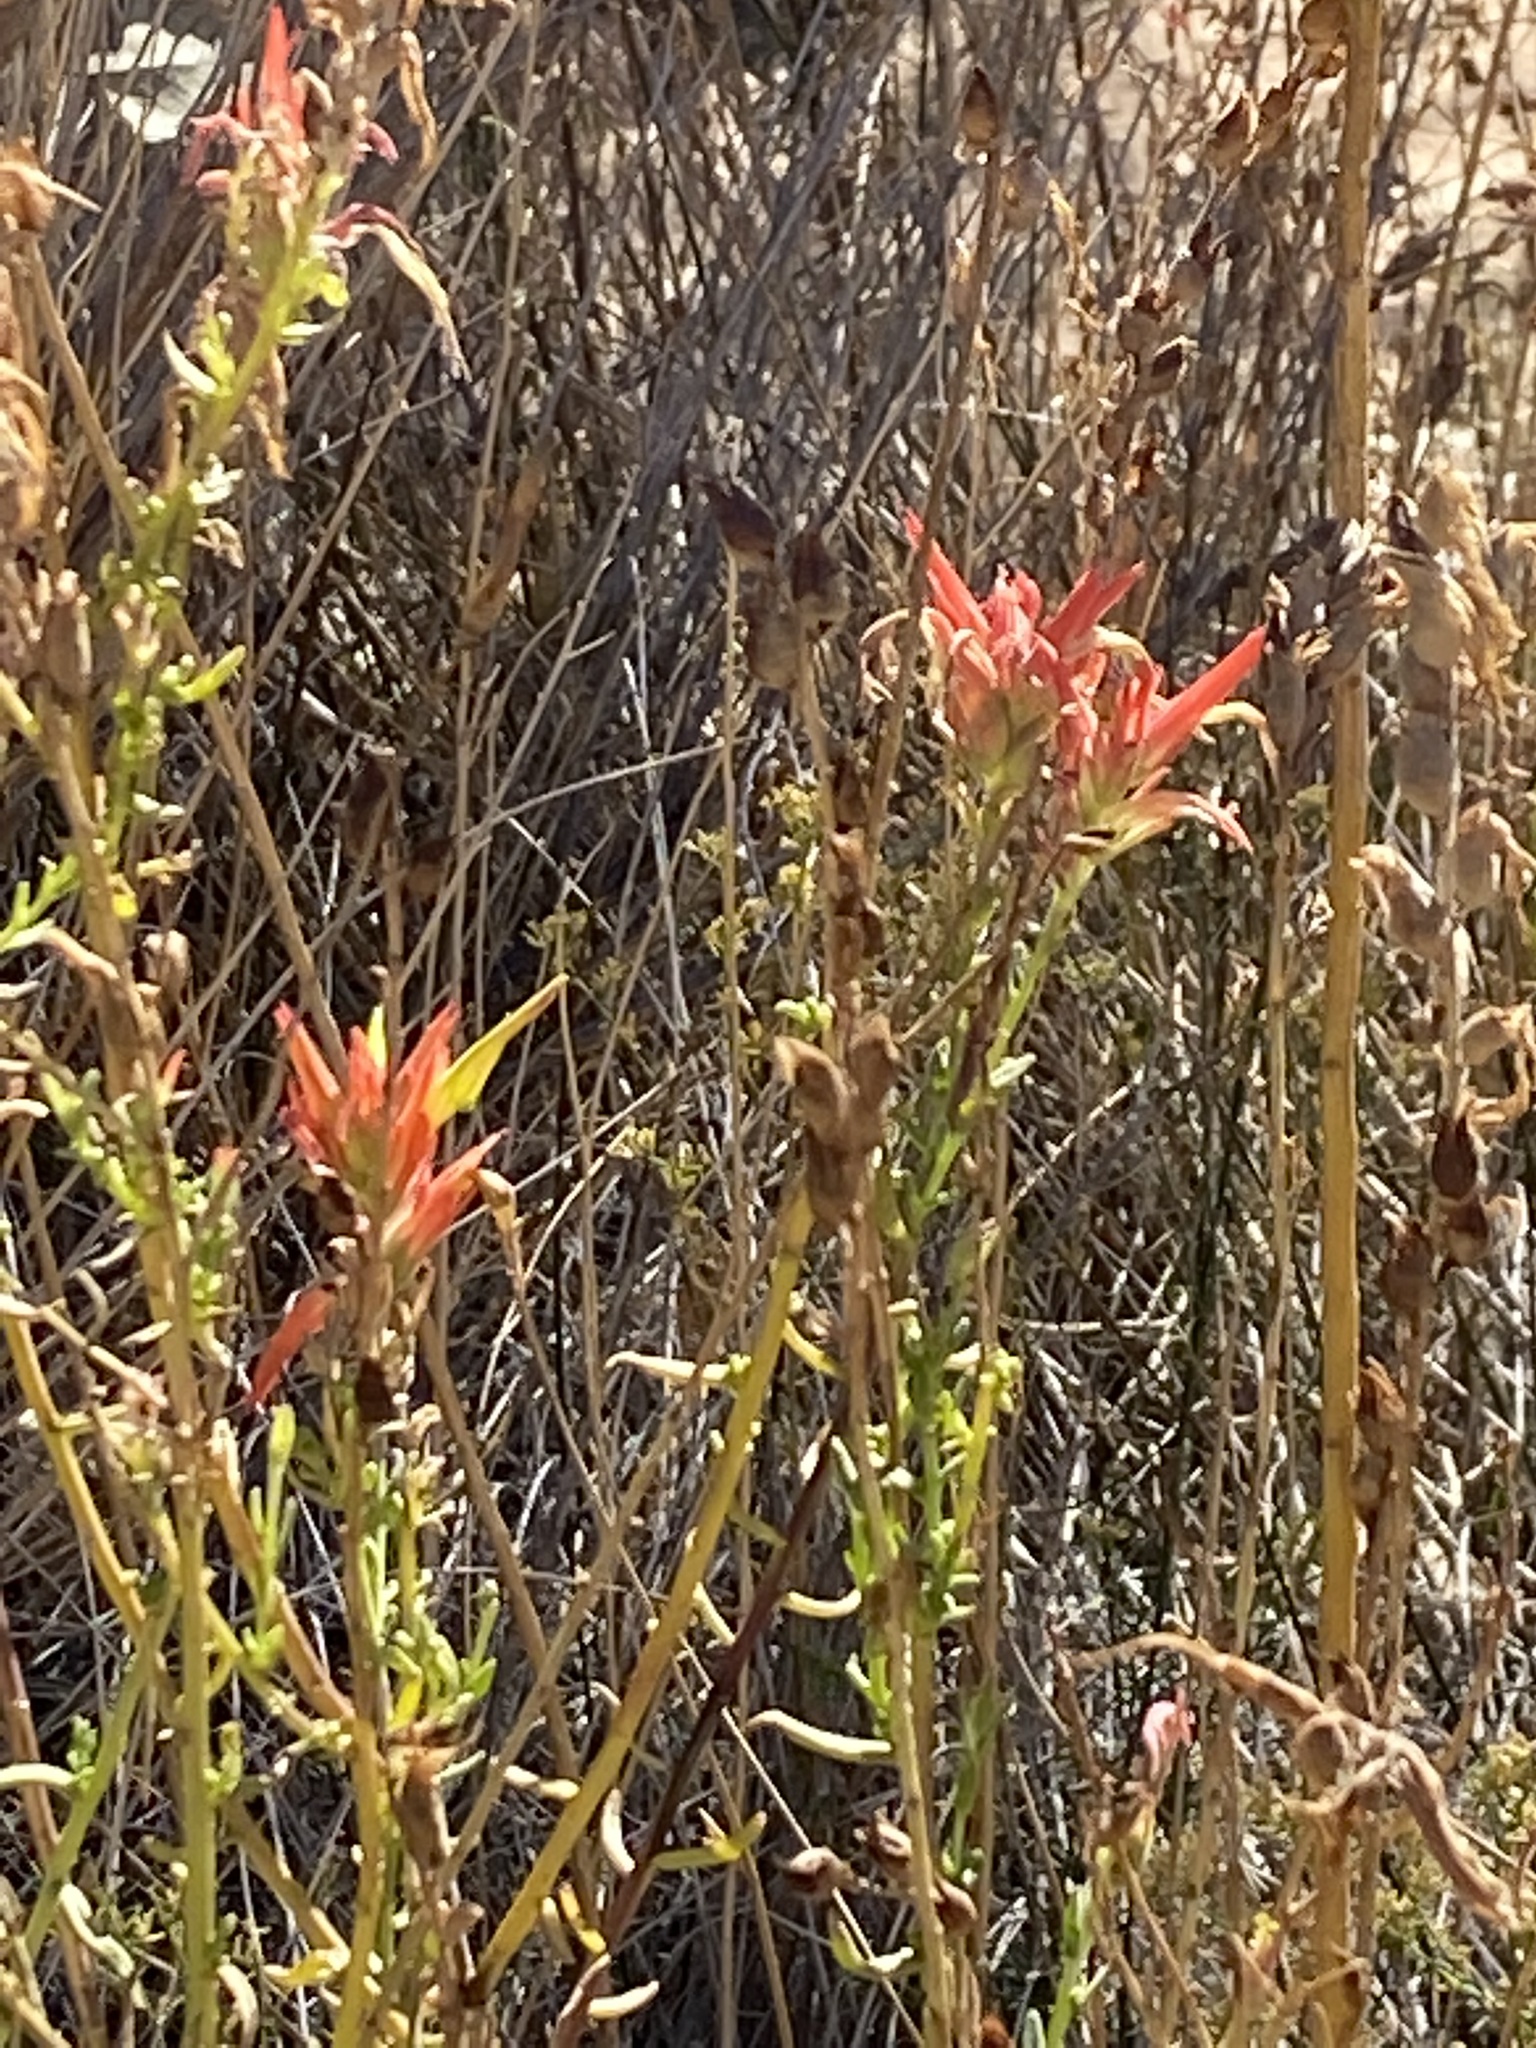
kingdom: Plantae
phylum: Tracheophyta
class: Magnoliopsida
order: Lamiales
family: Orobanchaceae
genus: Castilleja
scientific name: Castilleja linariifolia
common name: Wyoming paintbrush
